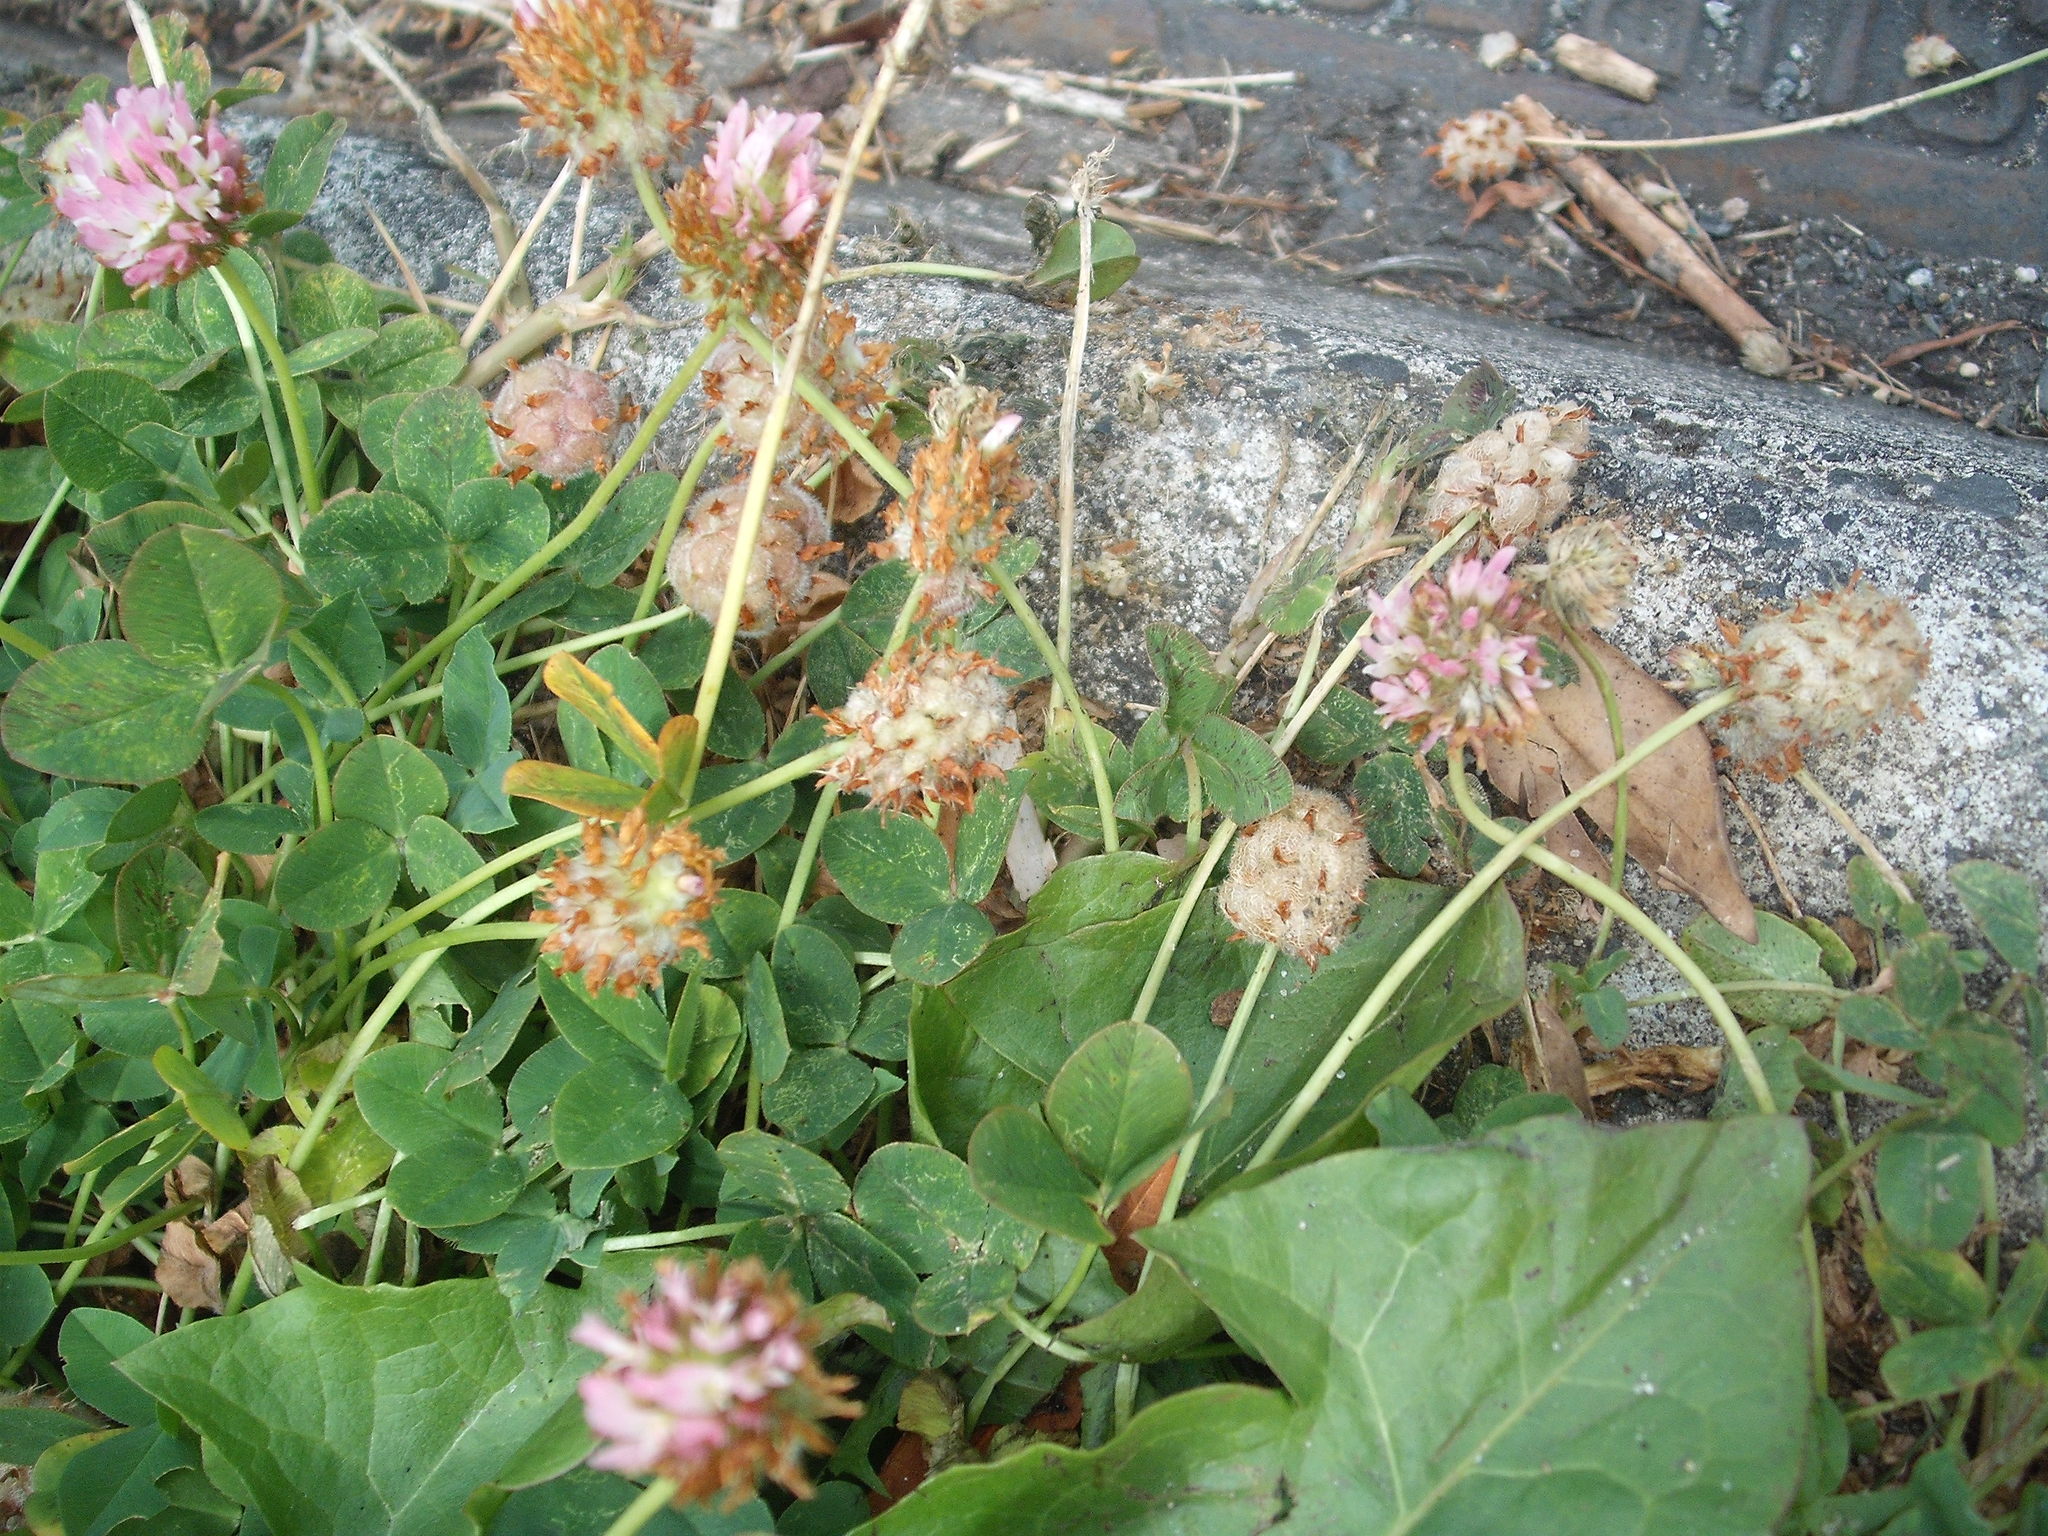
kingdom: Plantae
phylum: Tracheophyta
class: Magnoliopsida
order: Fabales
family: Fabaceae
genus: Trifolium
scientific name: Trifolium fragiferum
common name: Strawberry clover
